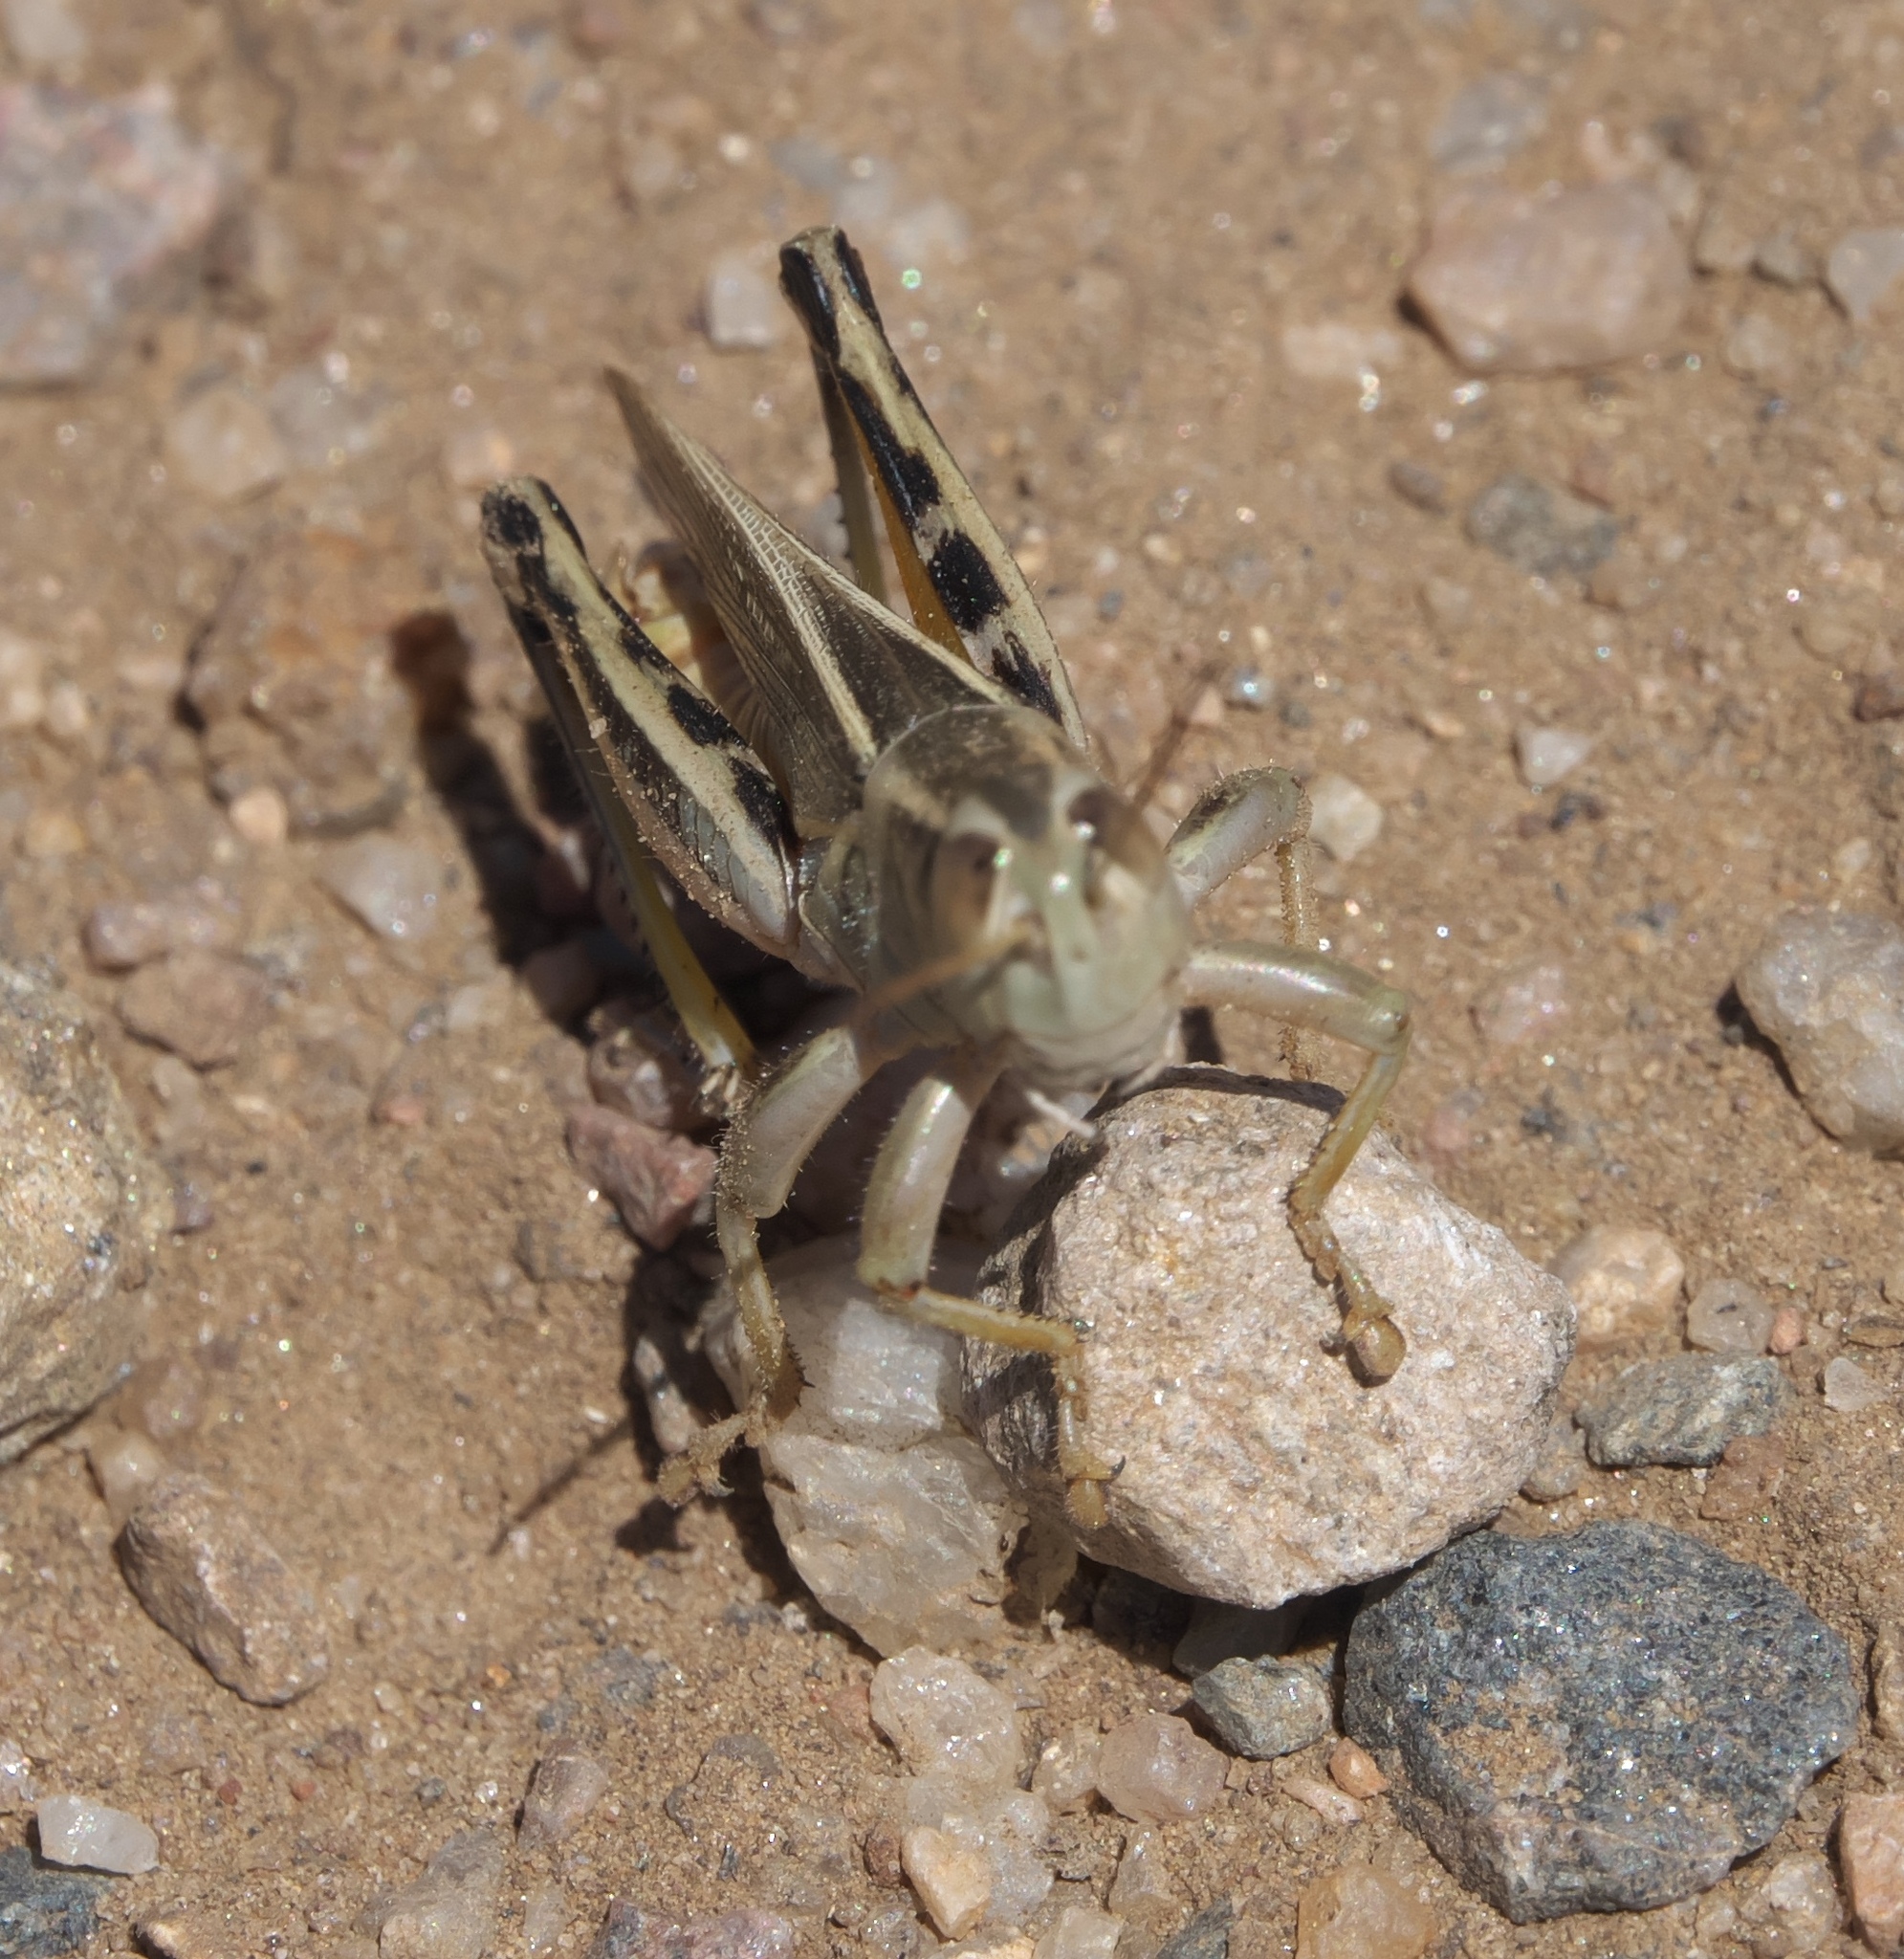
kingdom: Animalia
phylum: Arthropoda
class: Insecta
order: Orthoptera
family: Acrididae
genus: Melanoplus
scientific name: Melanoplus bivittatus
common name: Two-striped grasshopper
